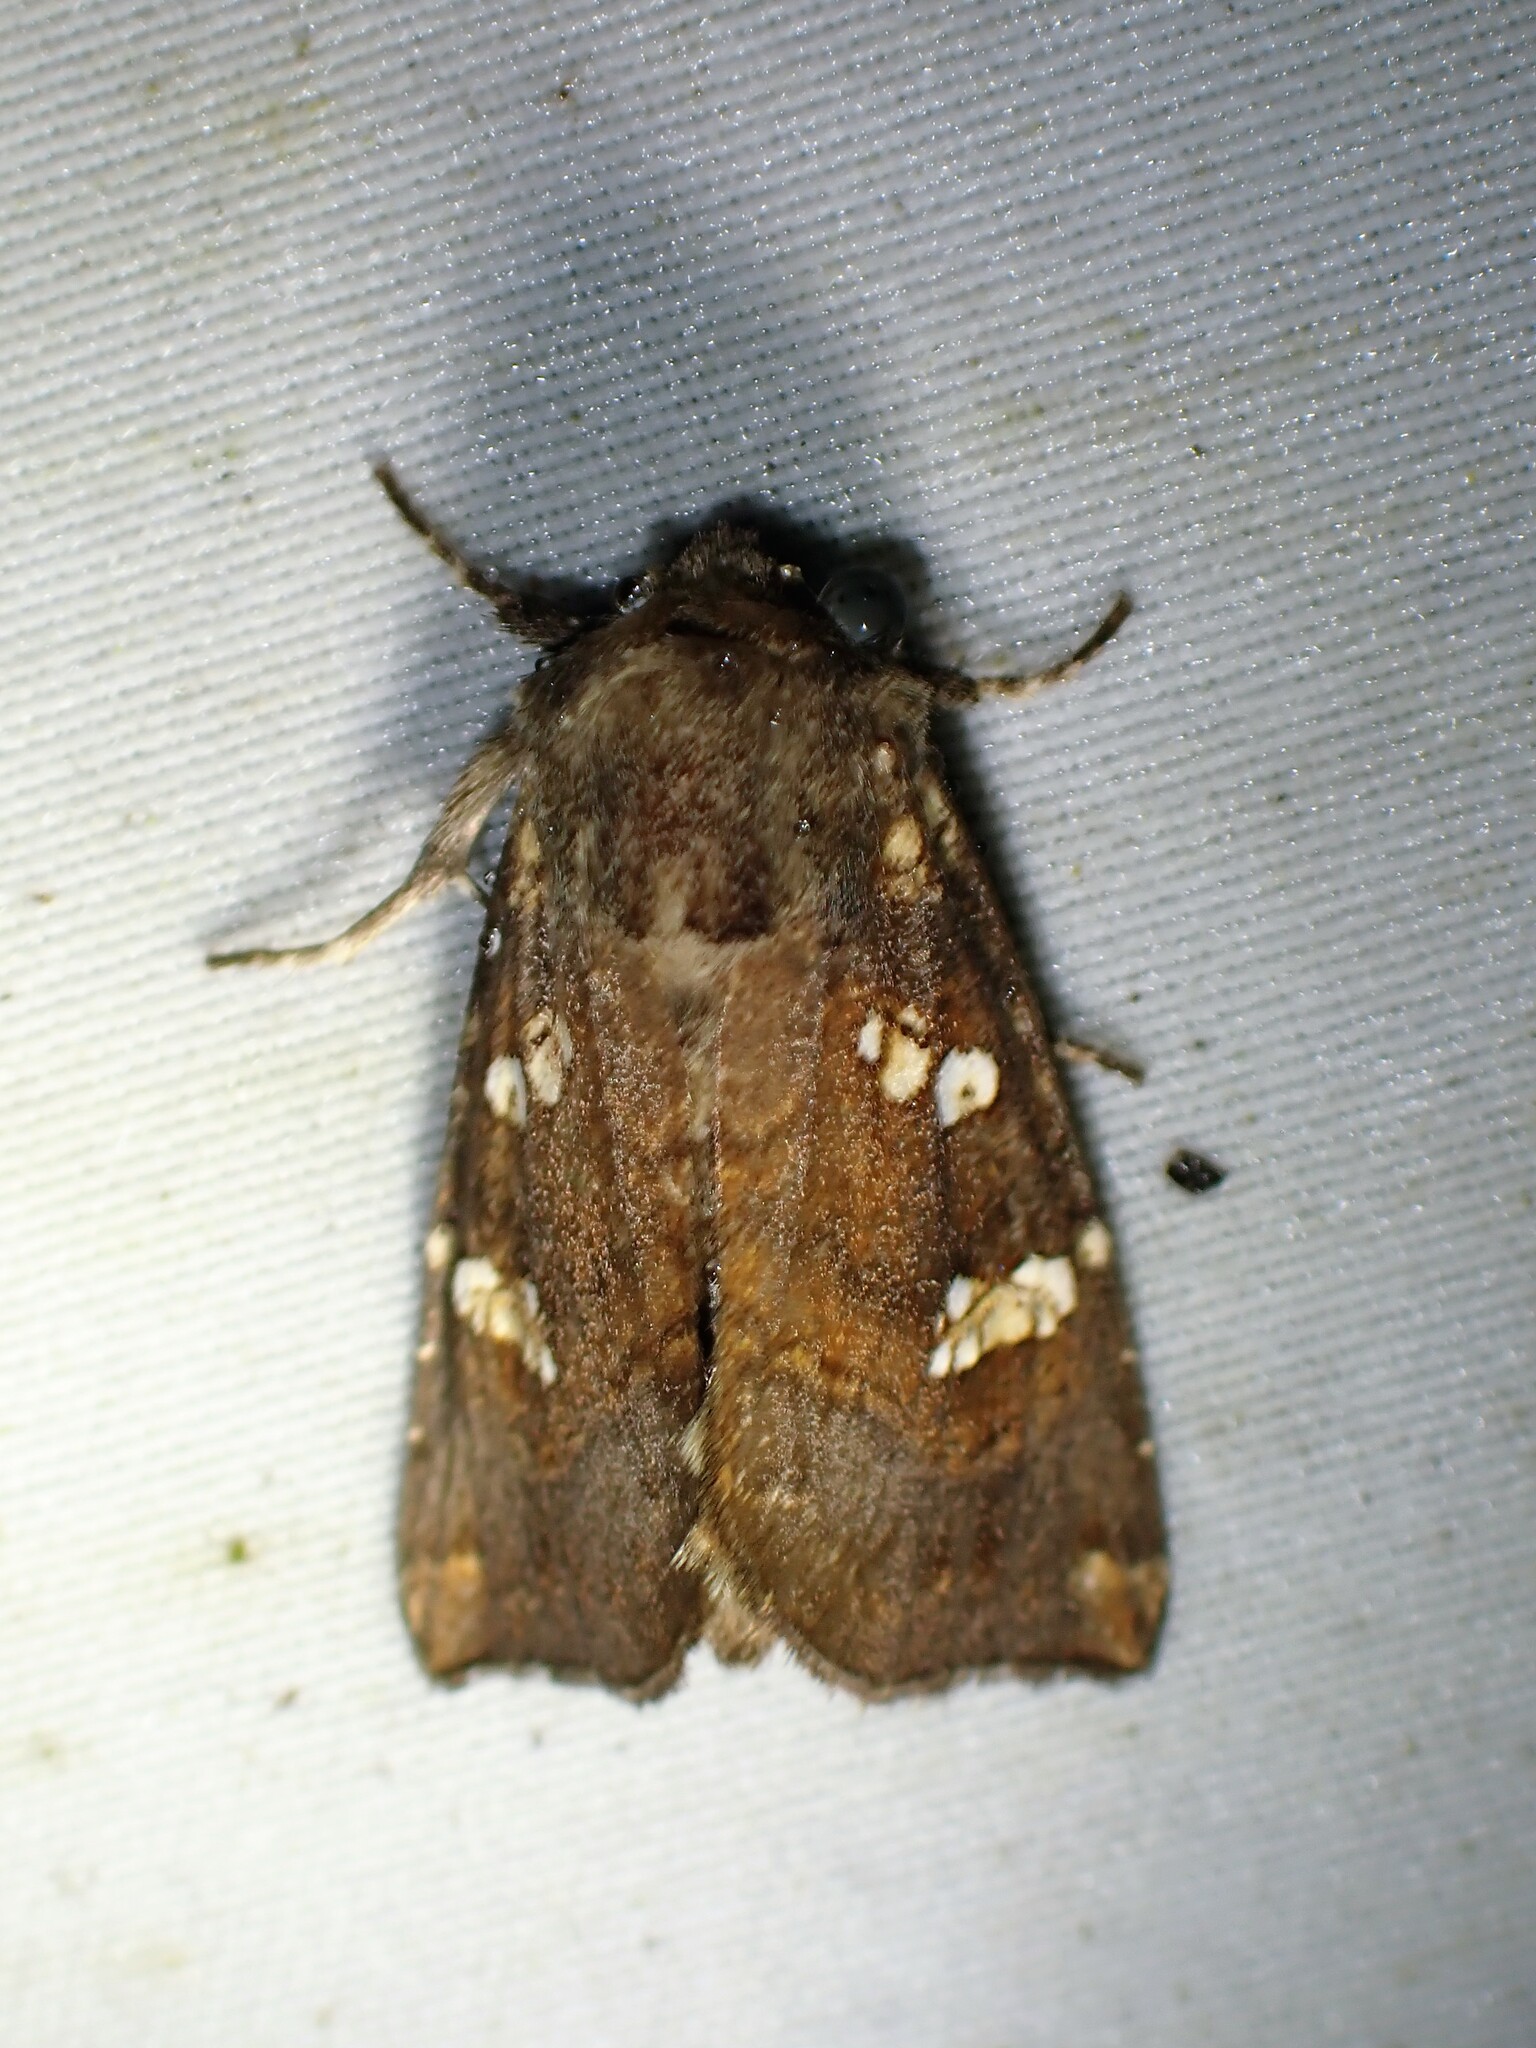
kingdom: Animalia
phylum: Arthropoda
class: Insecta
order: Lepidoptera
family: Noctuidae
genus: Papaipema
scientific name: Papaipema unimoda
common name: Meadow rue borer moth
